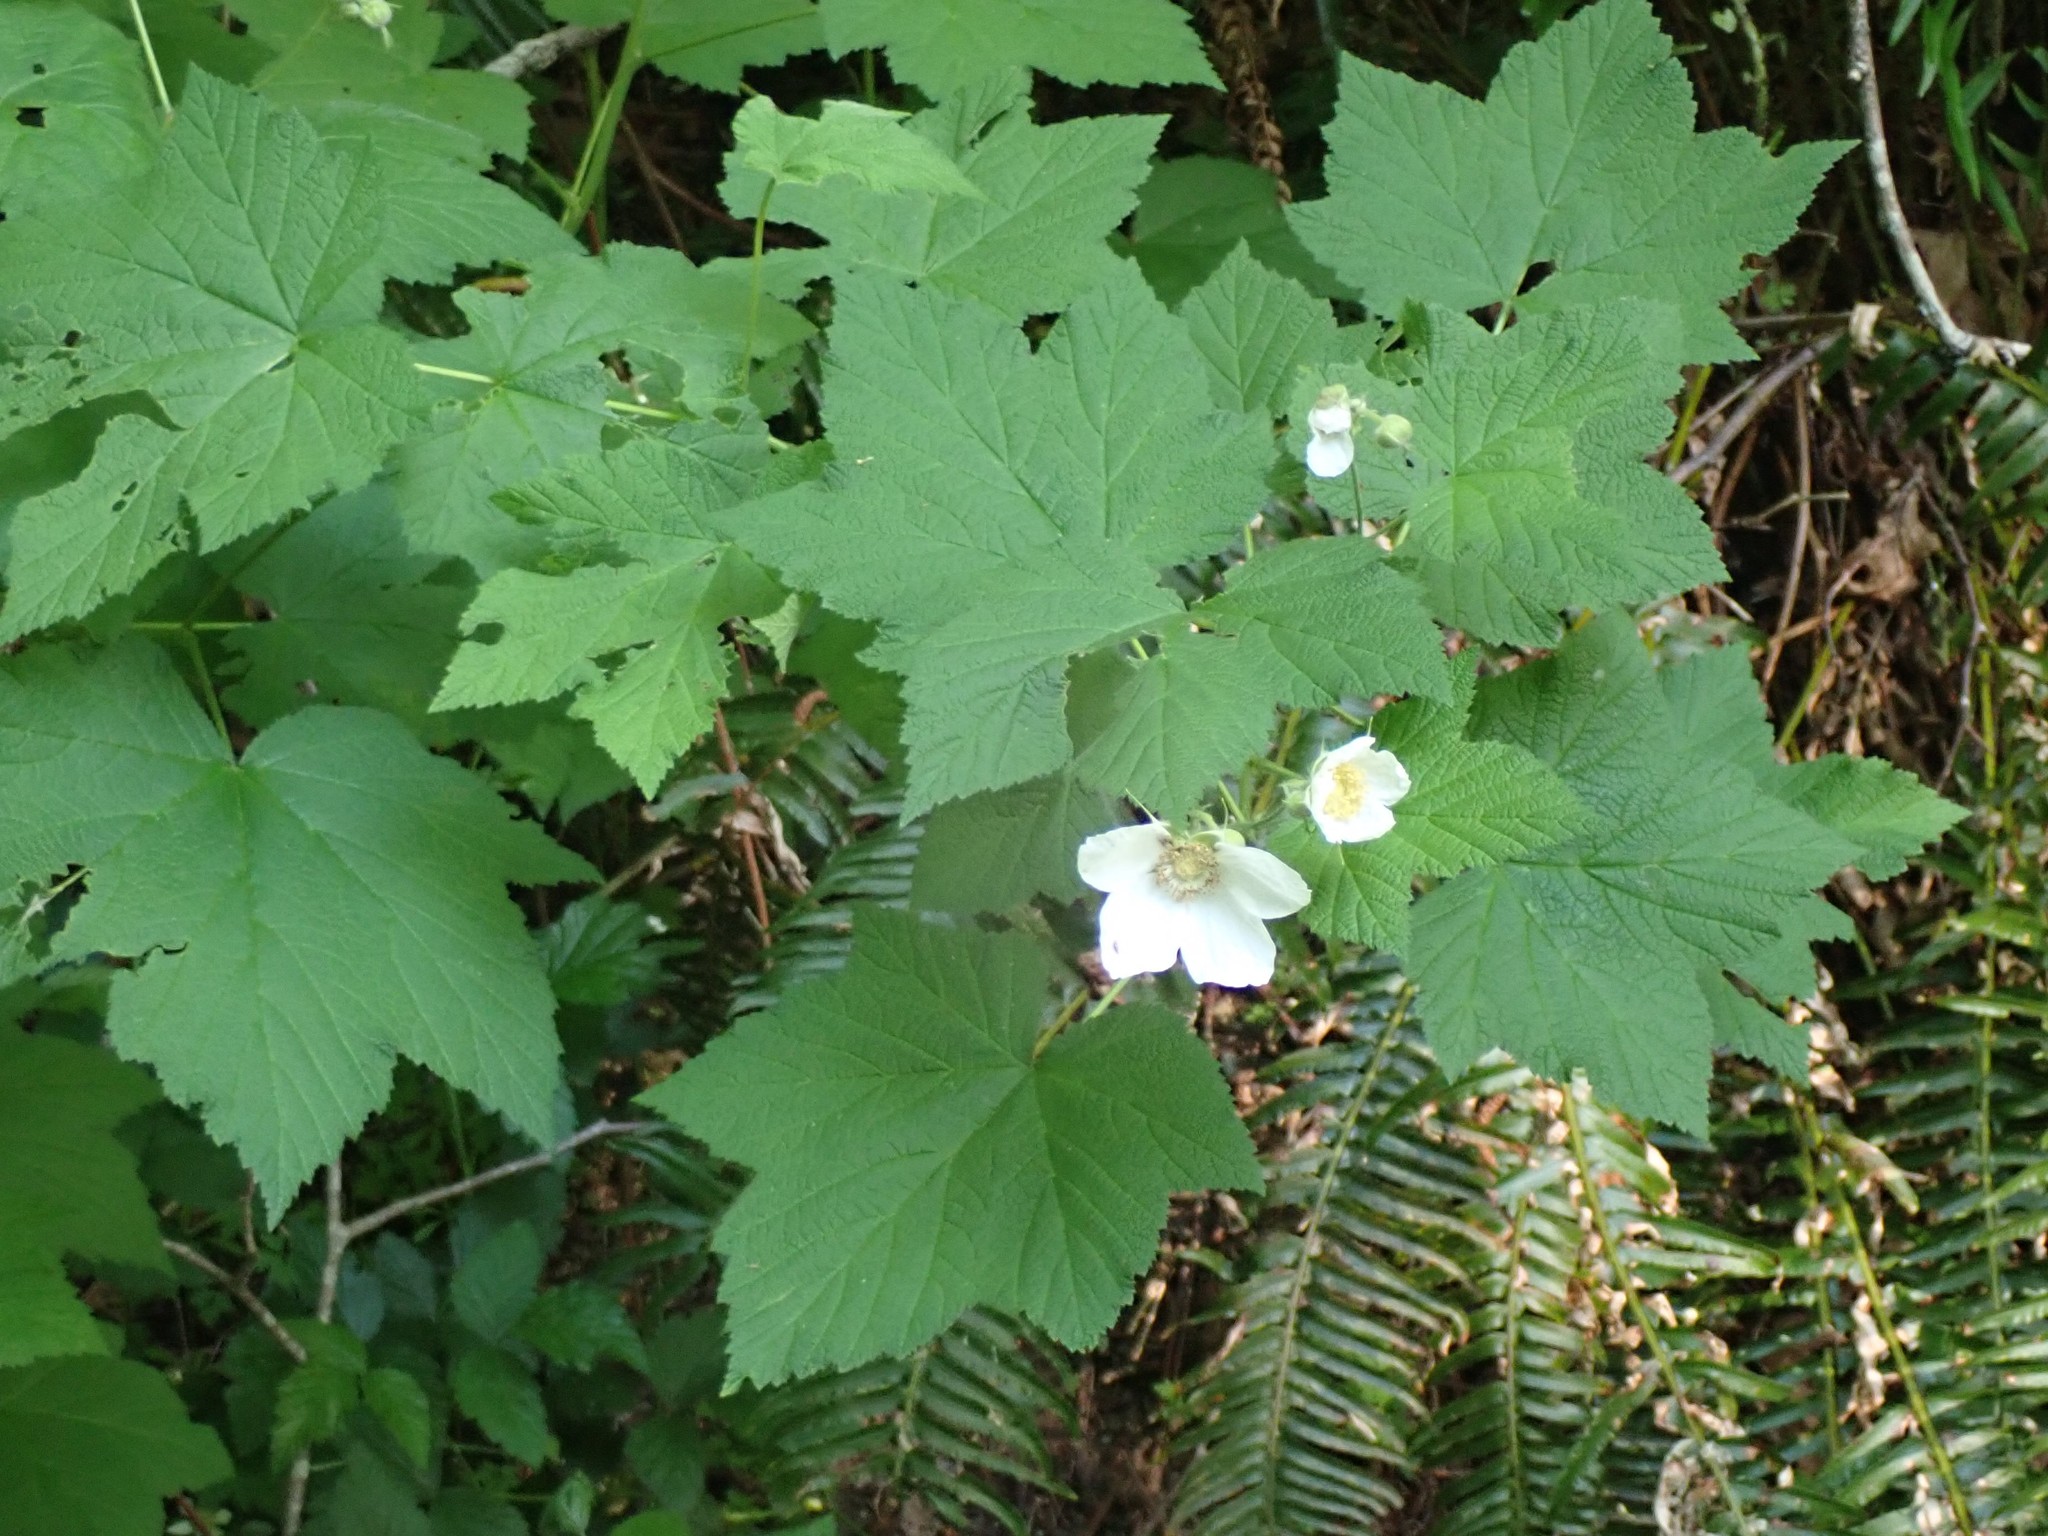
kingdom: Plantae
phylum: Tracheophyta
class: Magnoliopsida
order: Rosales
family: Rosaceae
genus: Rubus
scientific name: Rubus parviflorus
